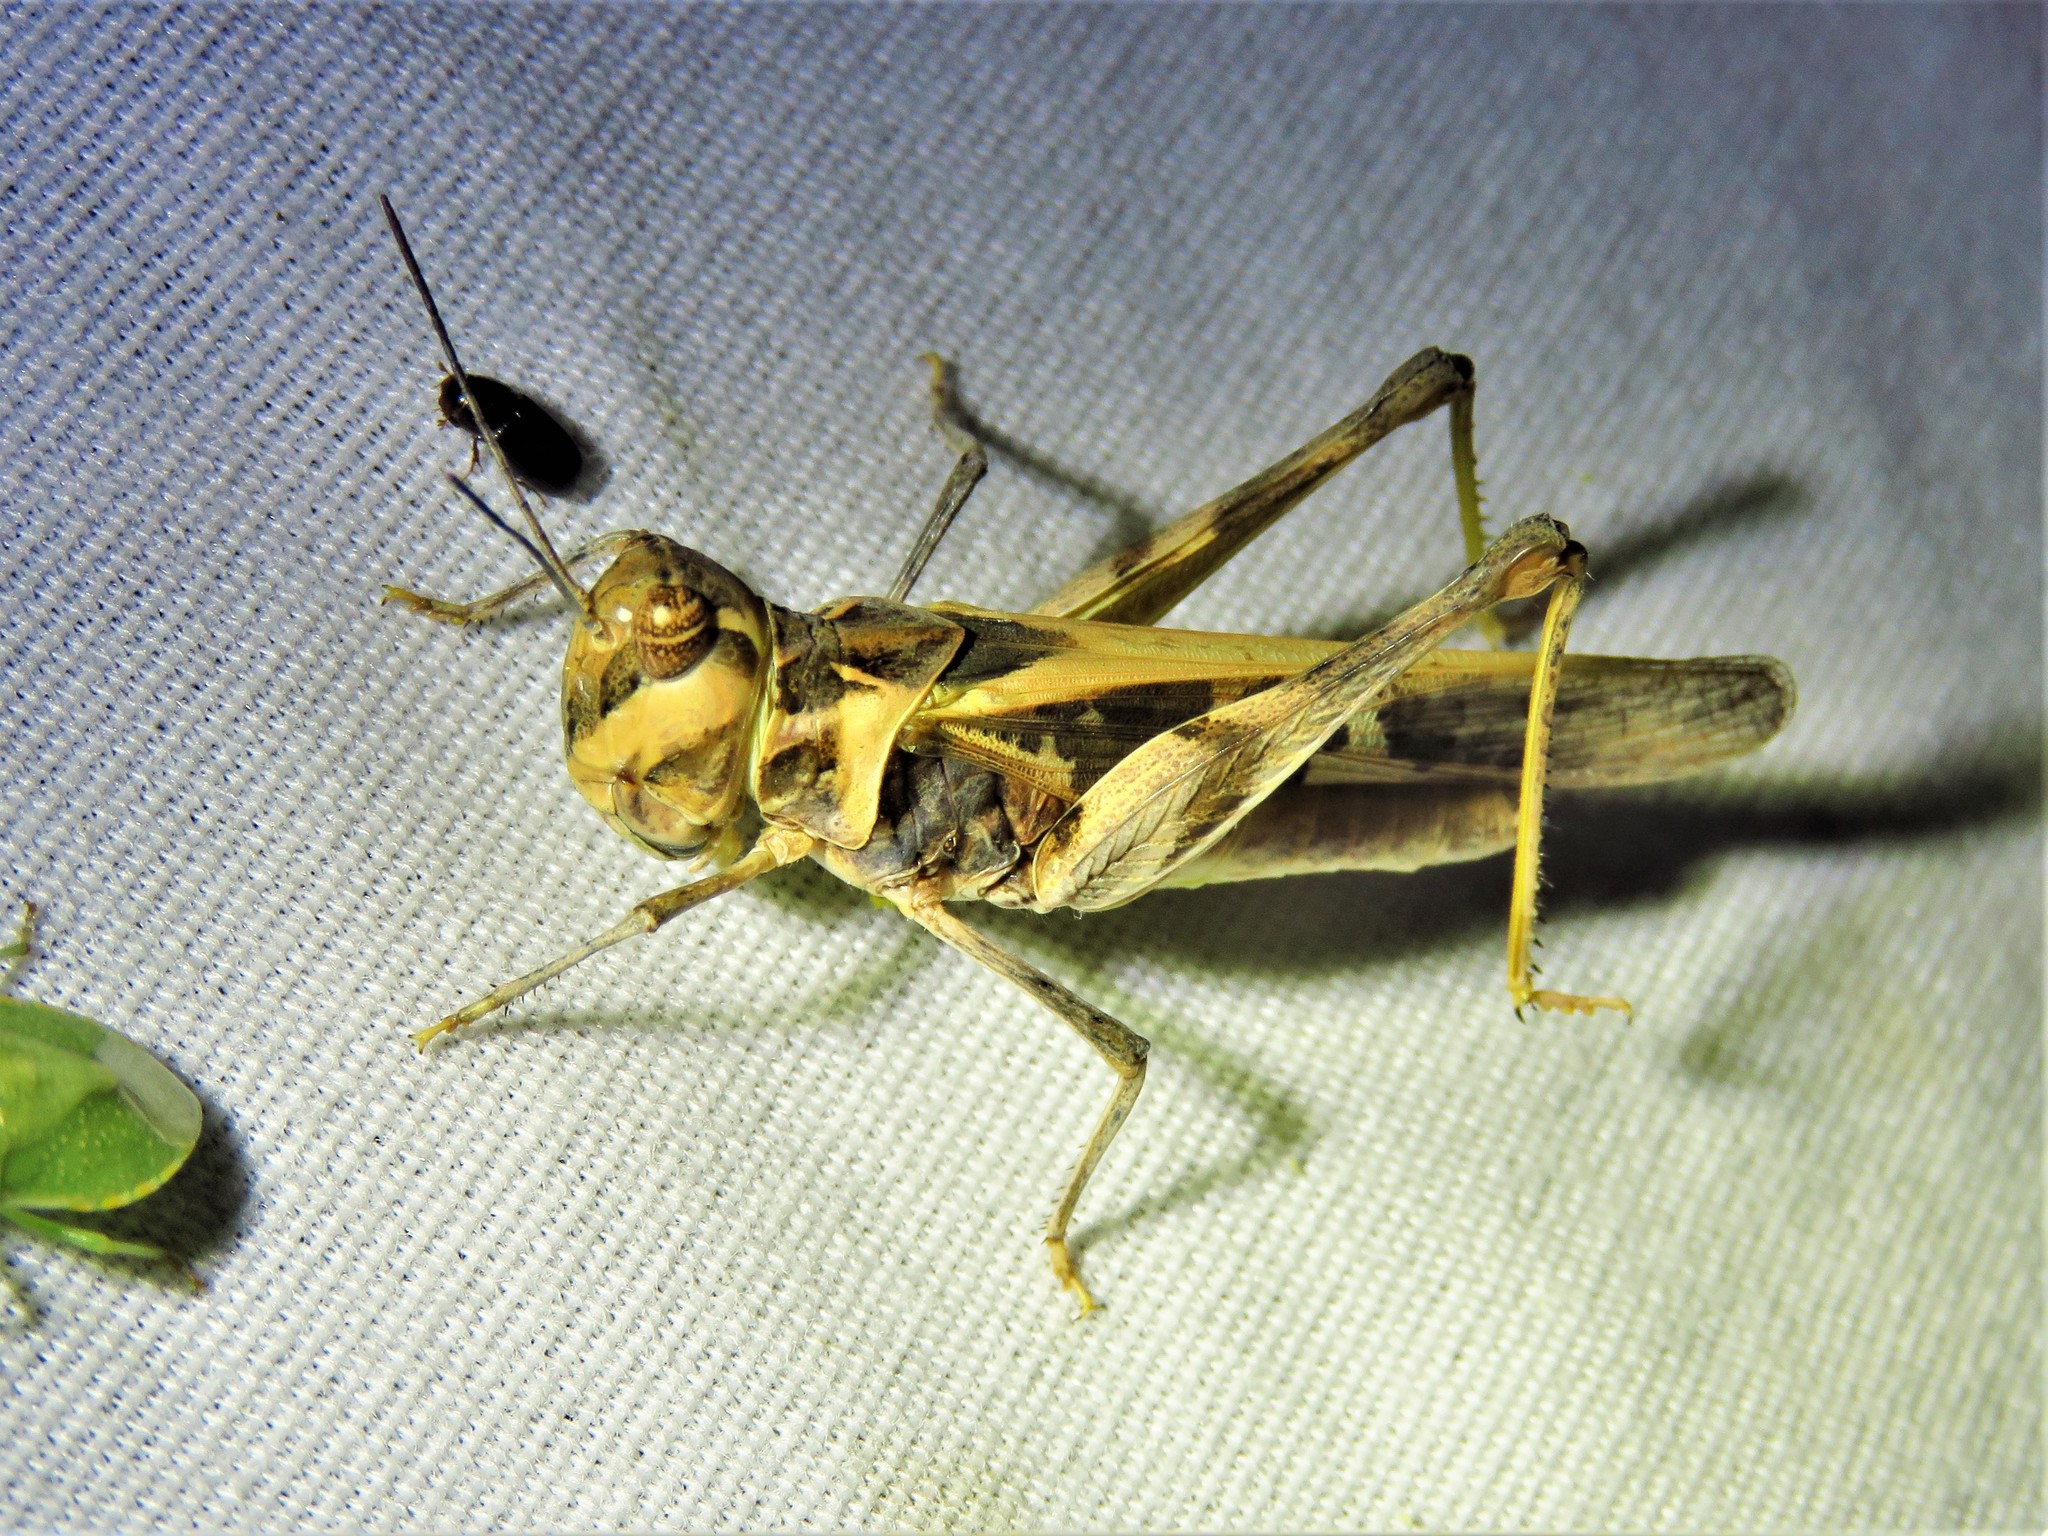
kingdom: Animalia
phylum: Arthropoda
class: Insecta
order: Orthoptera
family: Acrididae
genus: Hippopedon
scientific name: Hippopedon capito
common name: Apache grasshopper
